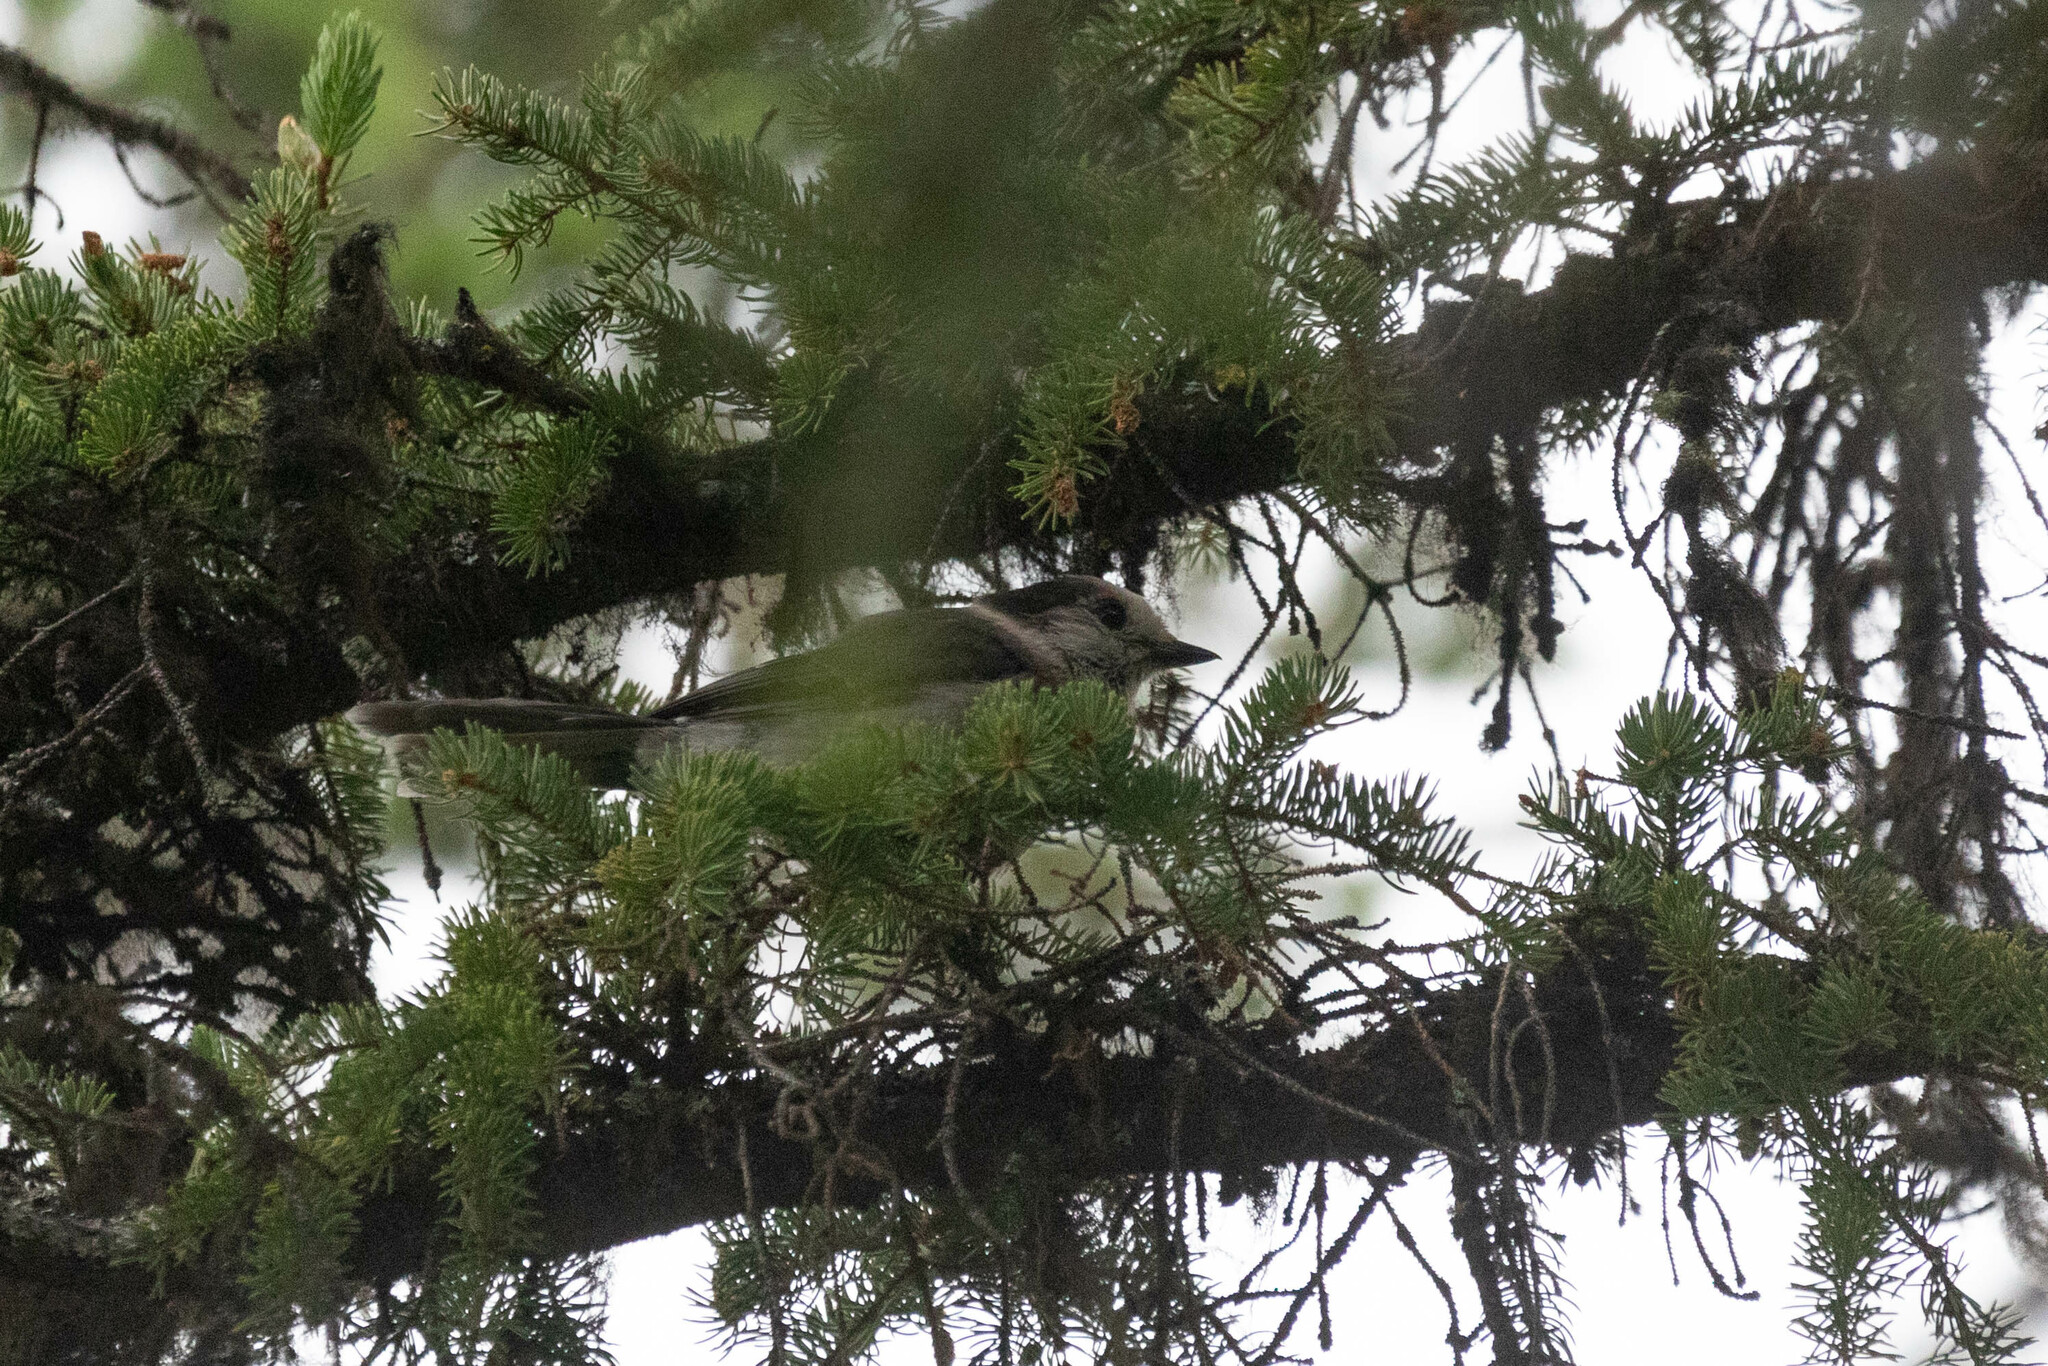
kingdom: Animalia
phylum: Chordata
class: Aves
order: Passeriformes
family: Corvidae
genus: Perisoreus
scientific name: Perisoreus canadensis
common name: Gray jay
